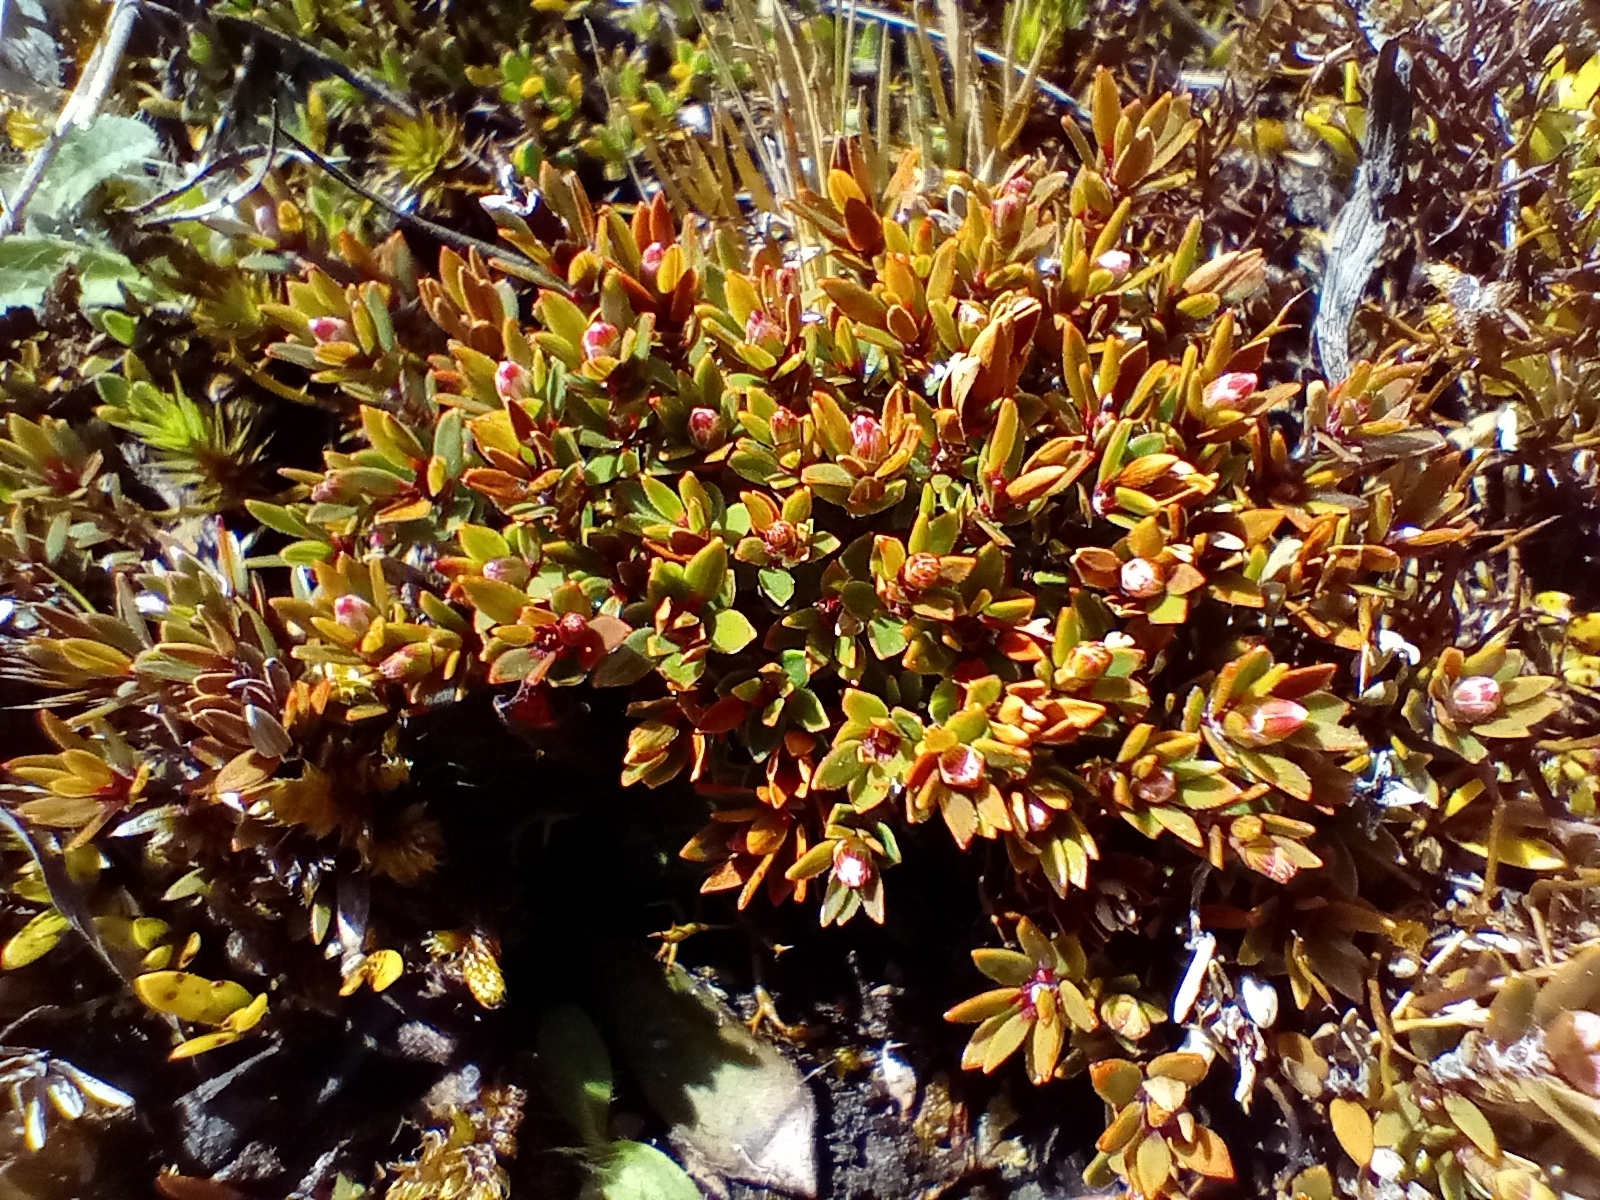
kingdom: Plantae
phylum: Tracheophyta
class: Magnoliopsida
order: Ericales
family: Ericaceae
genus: Pentachondra
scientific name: Pentachondra pumila
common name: Carpet-heath
